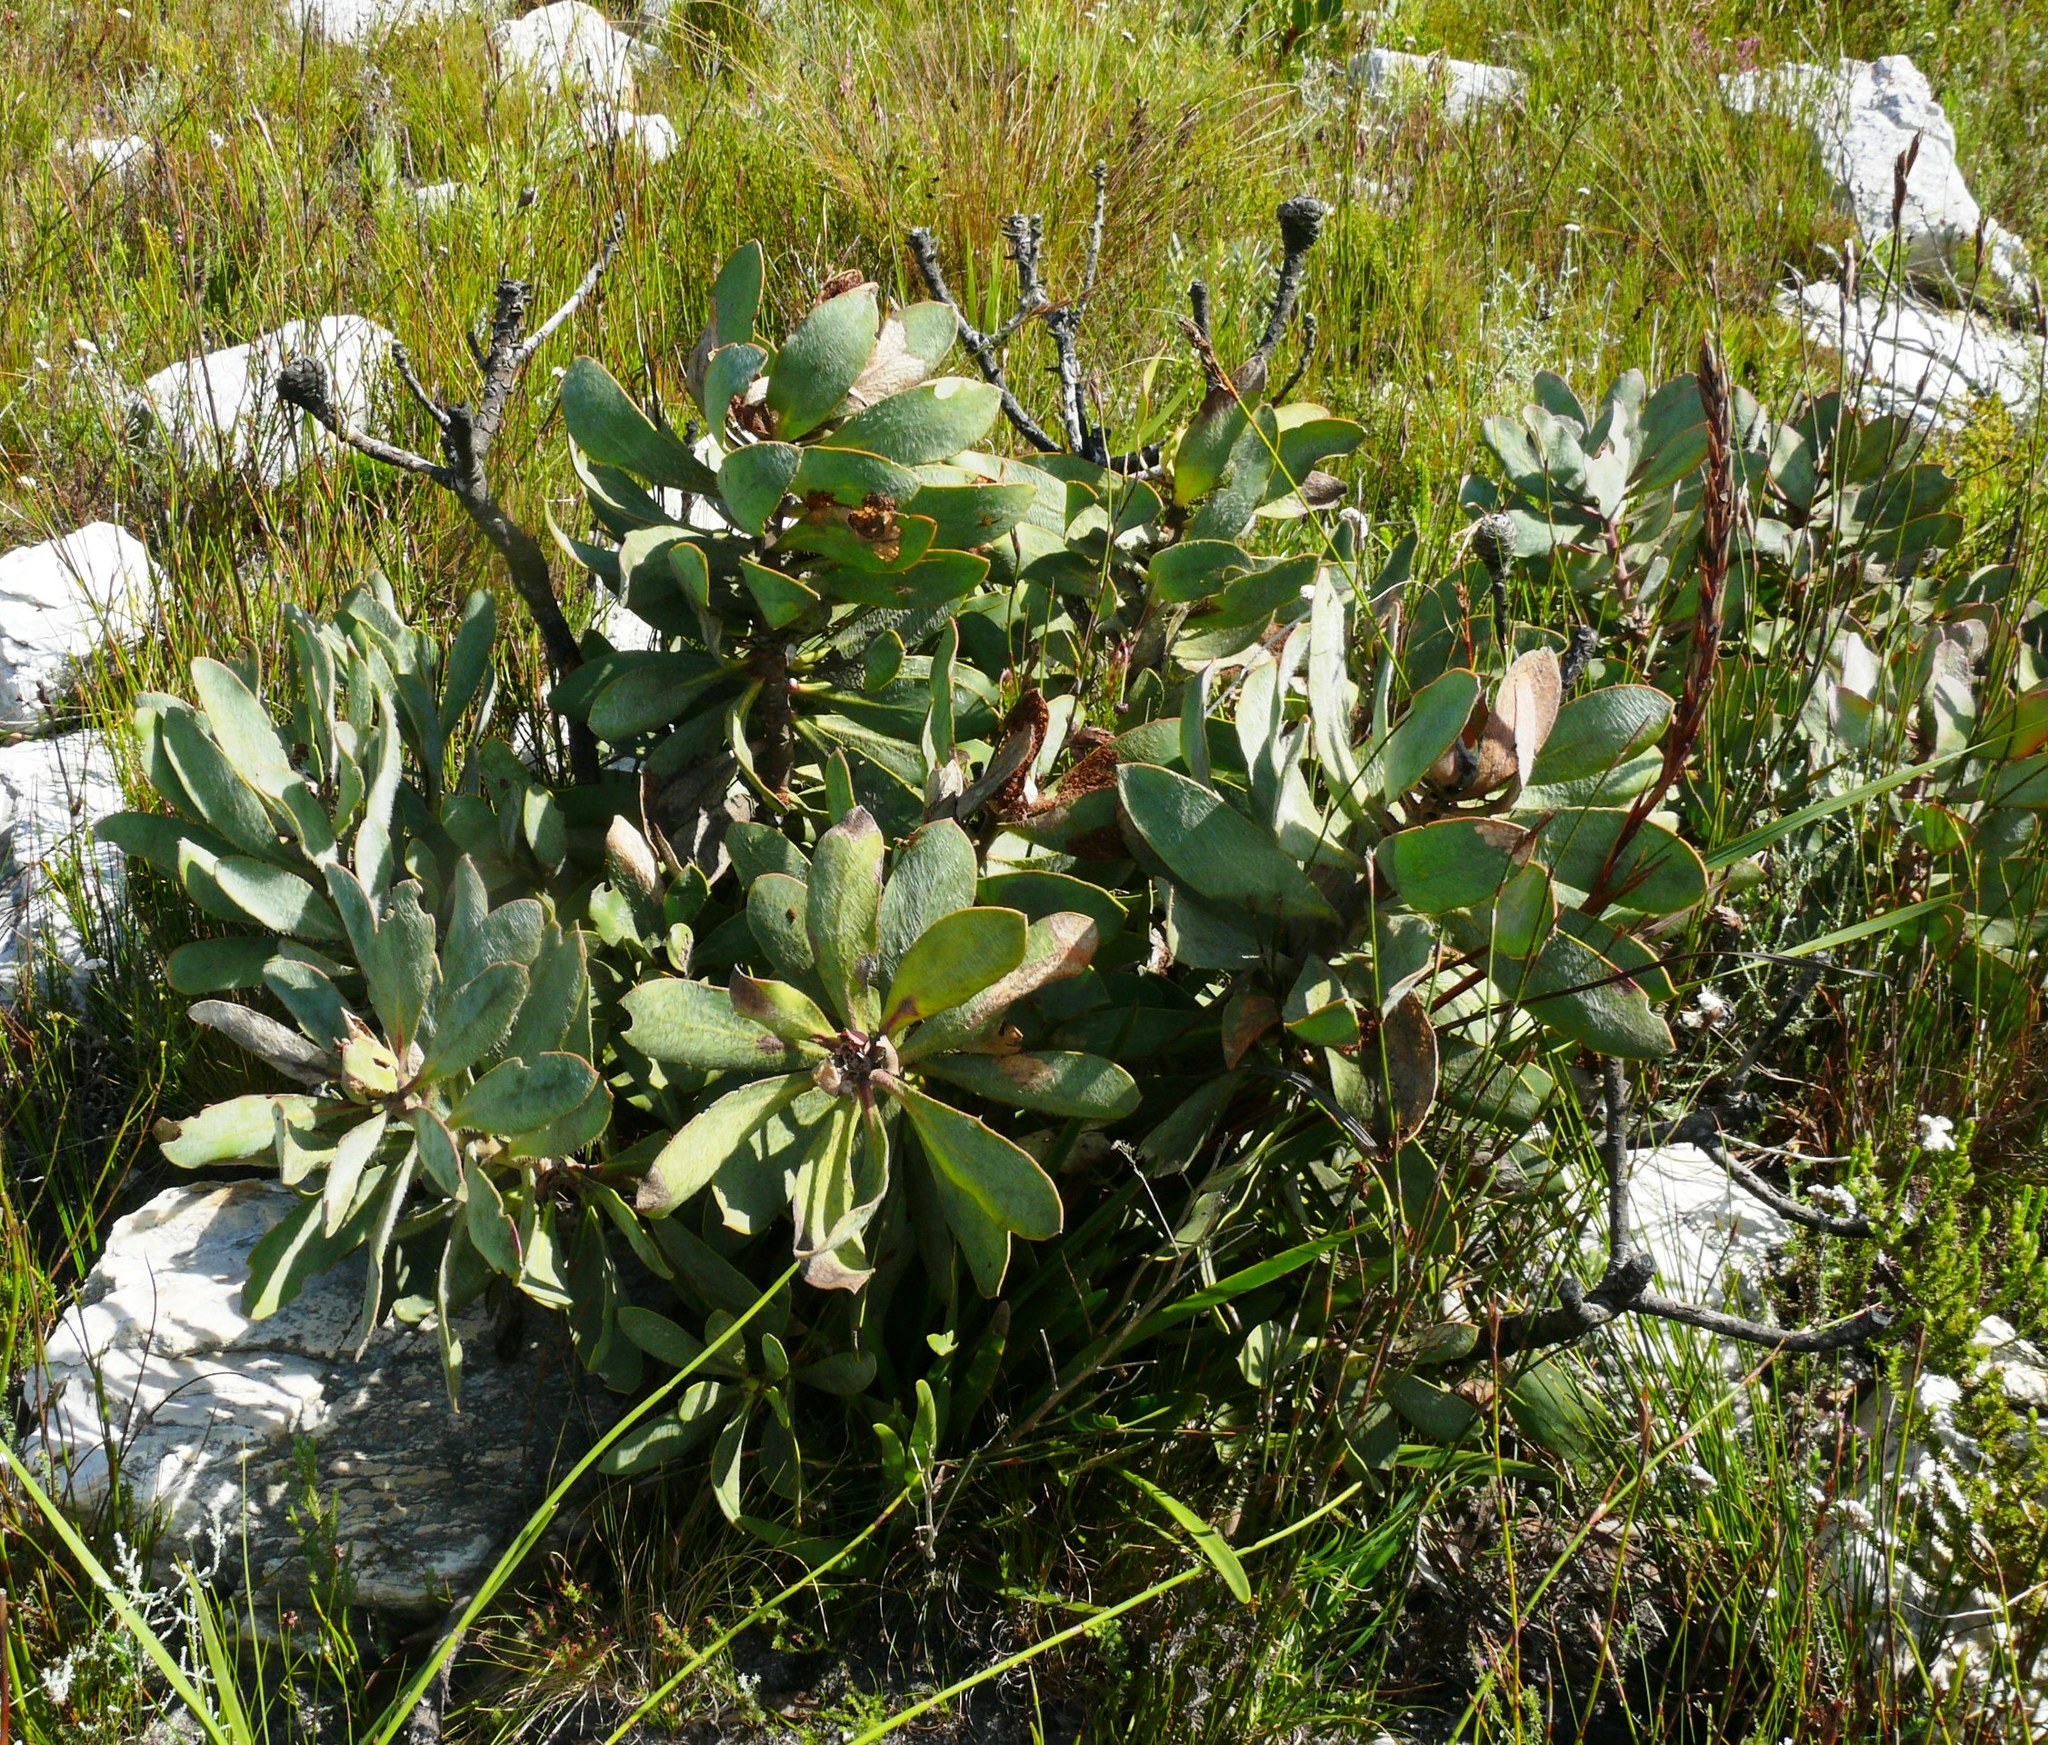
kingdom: Plantae
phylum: Tracheophyta
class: Magnoliopsida
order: Proteales
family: Proteaceae
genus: Protea
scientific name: Protea speciosa
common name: Brown-beard sugarbush
